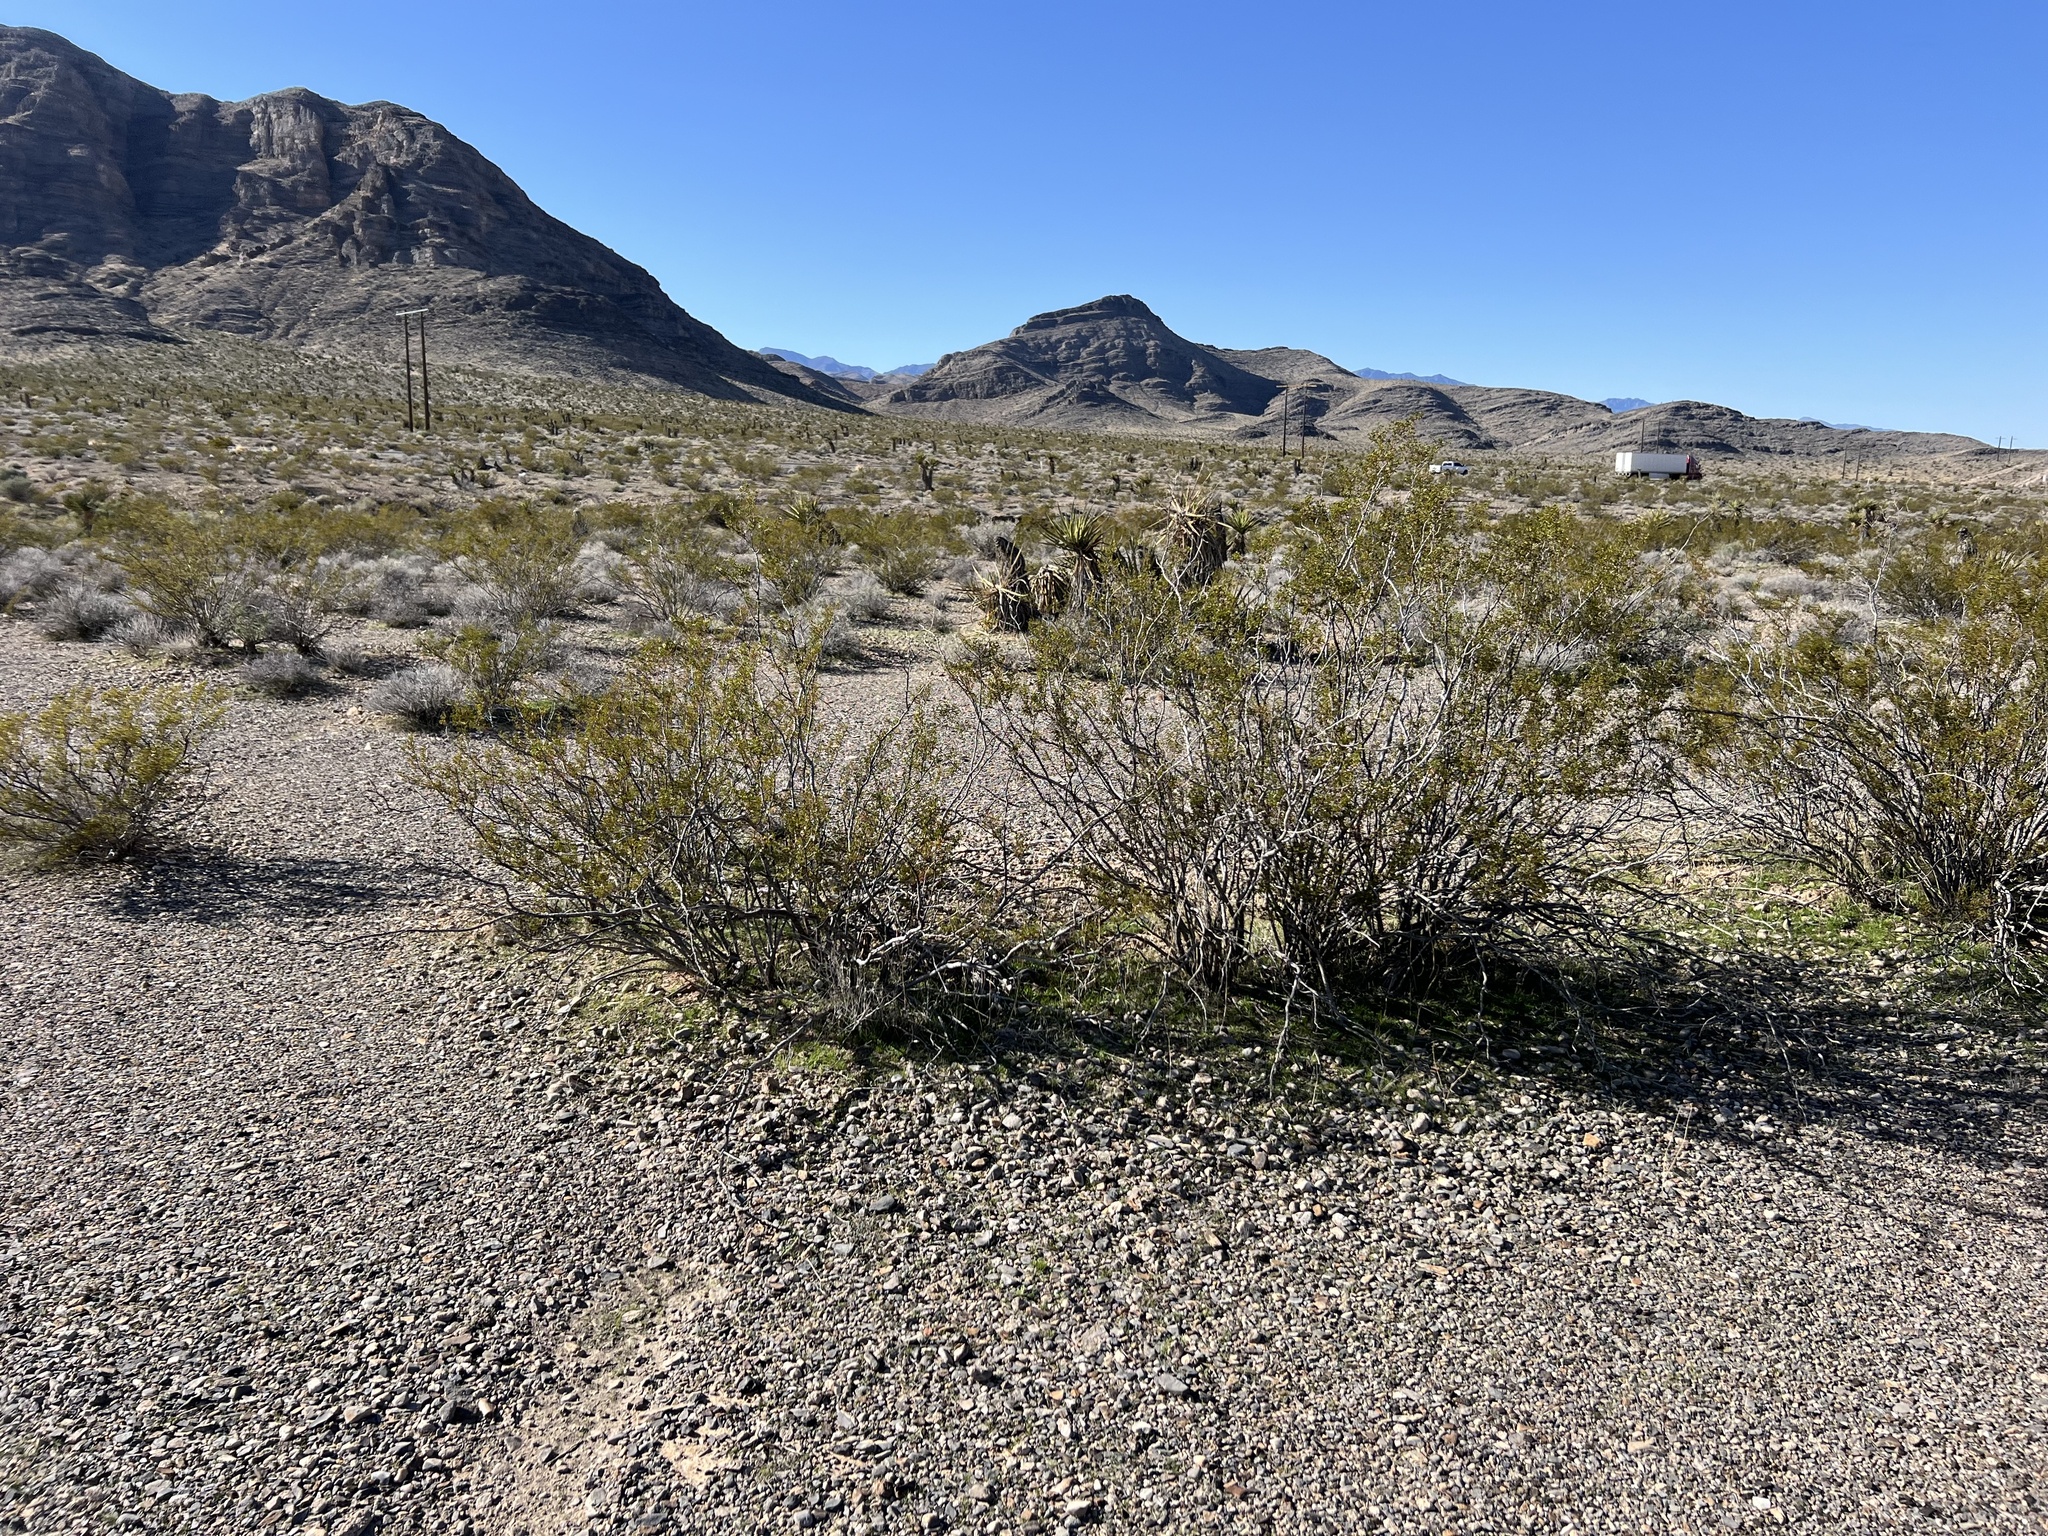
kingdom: Plantae
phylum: Tracheophyta
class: Magnoliopsida
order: Zygophyllales
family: Zygophyllaceae
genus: Larrea
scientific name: Larrea tridentata
